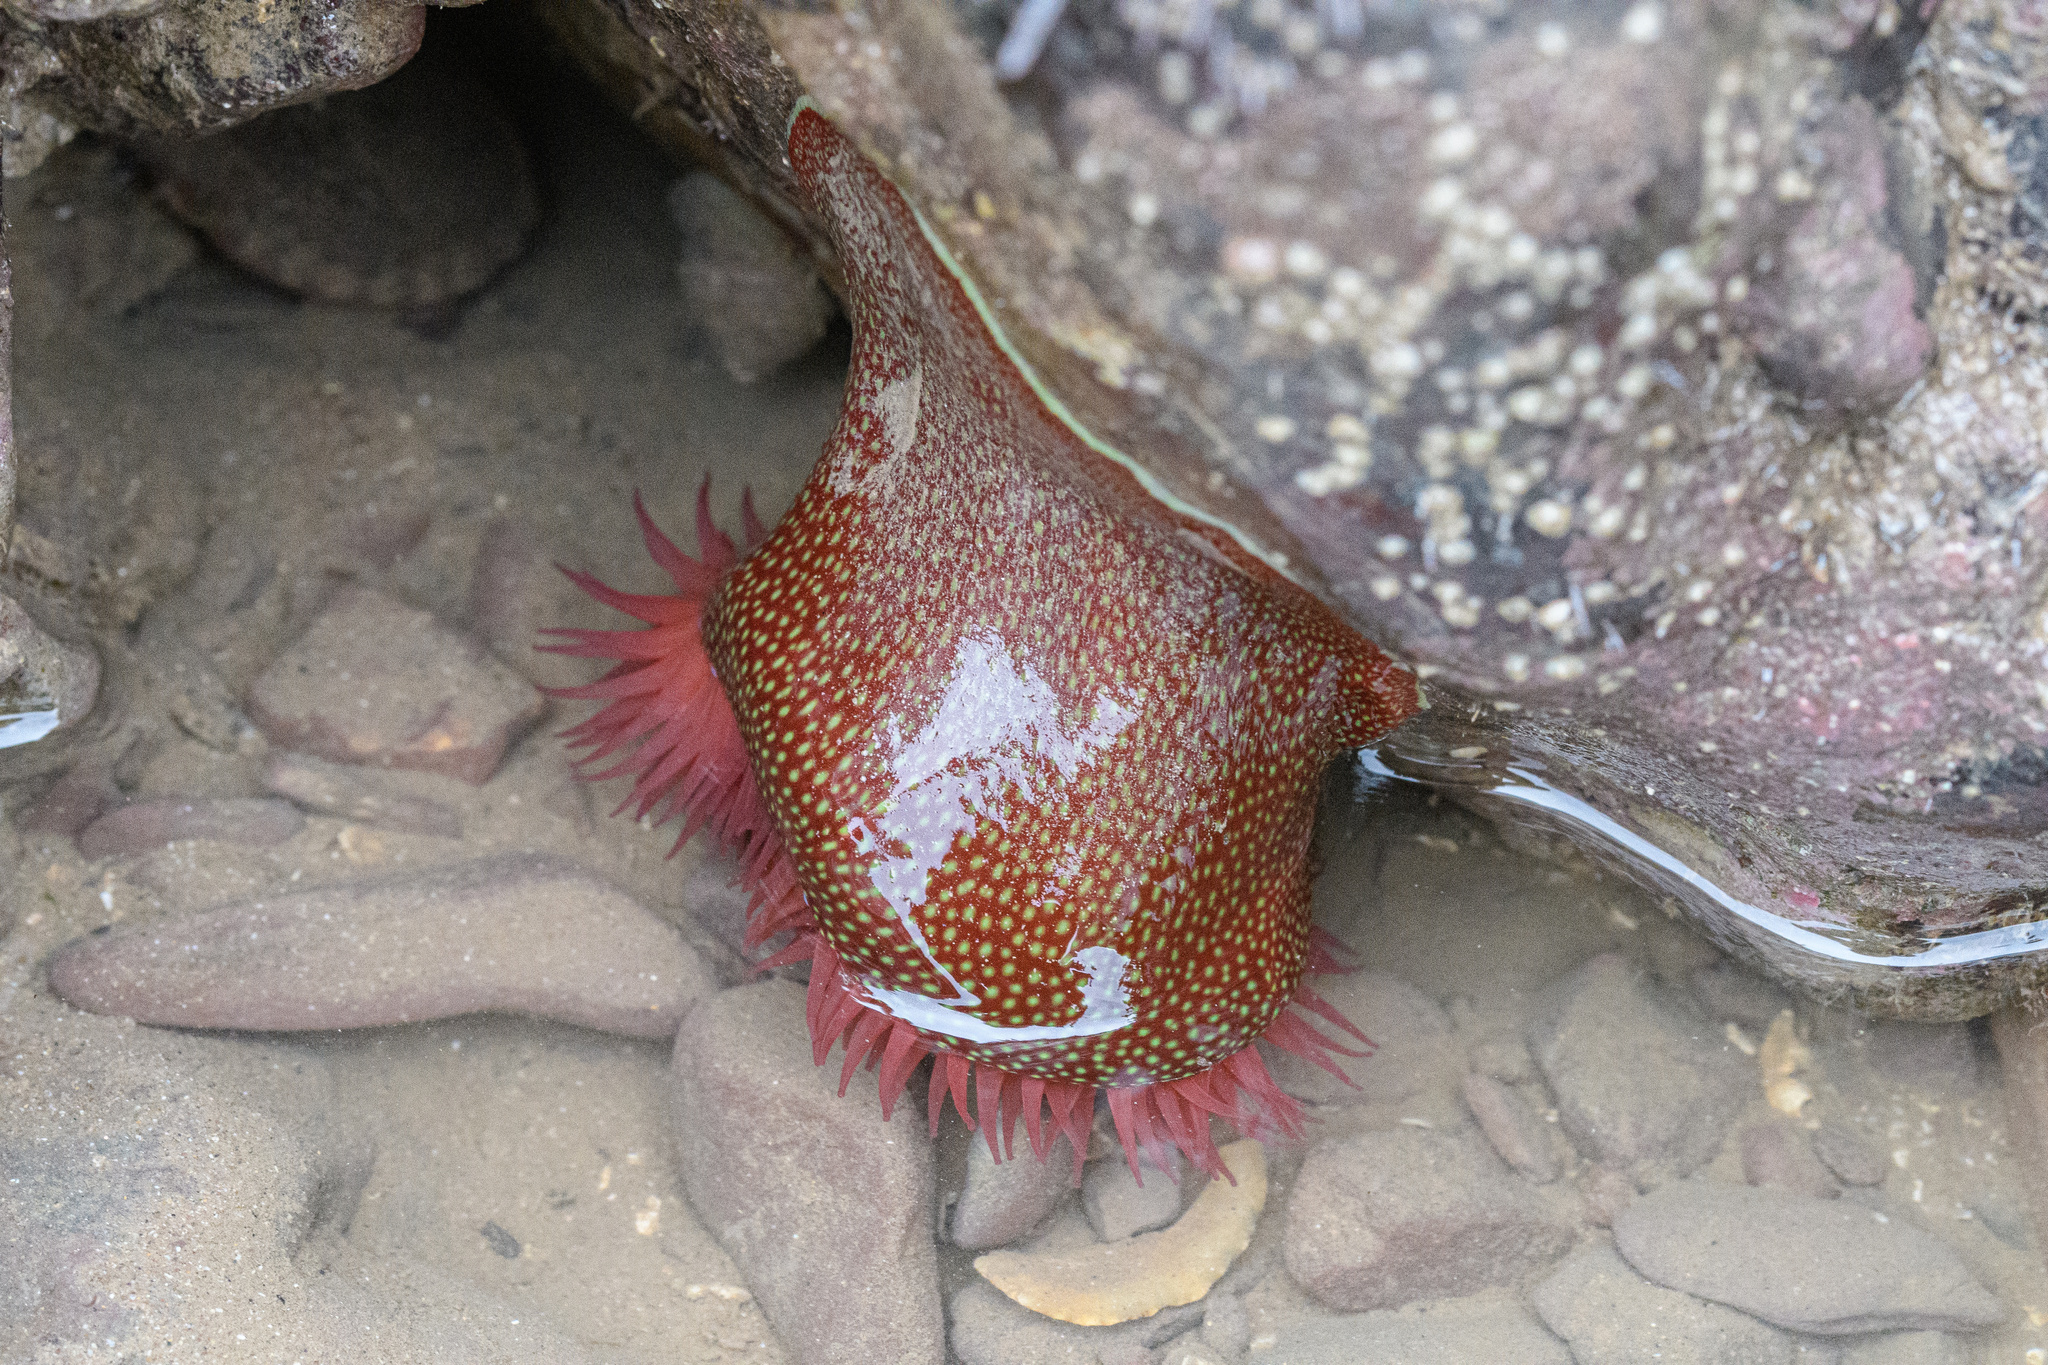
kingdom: Animalia
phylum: Cnidaria
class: Anthozoa
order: Actiniaria
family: Actiniidae
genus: Actinia
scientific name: Actinia fragacea
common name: Strawberry anemone
